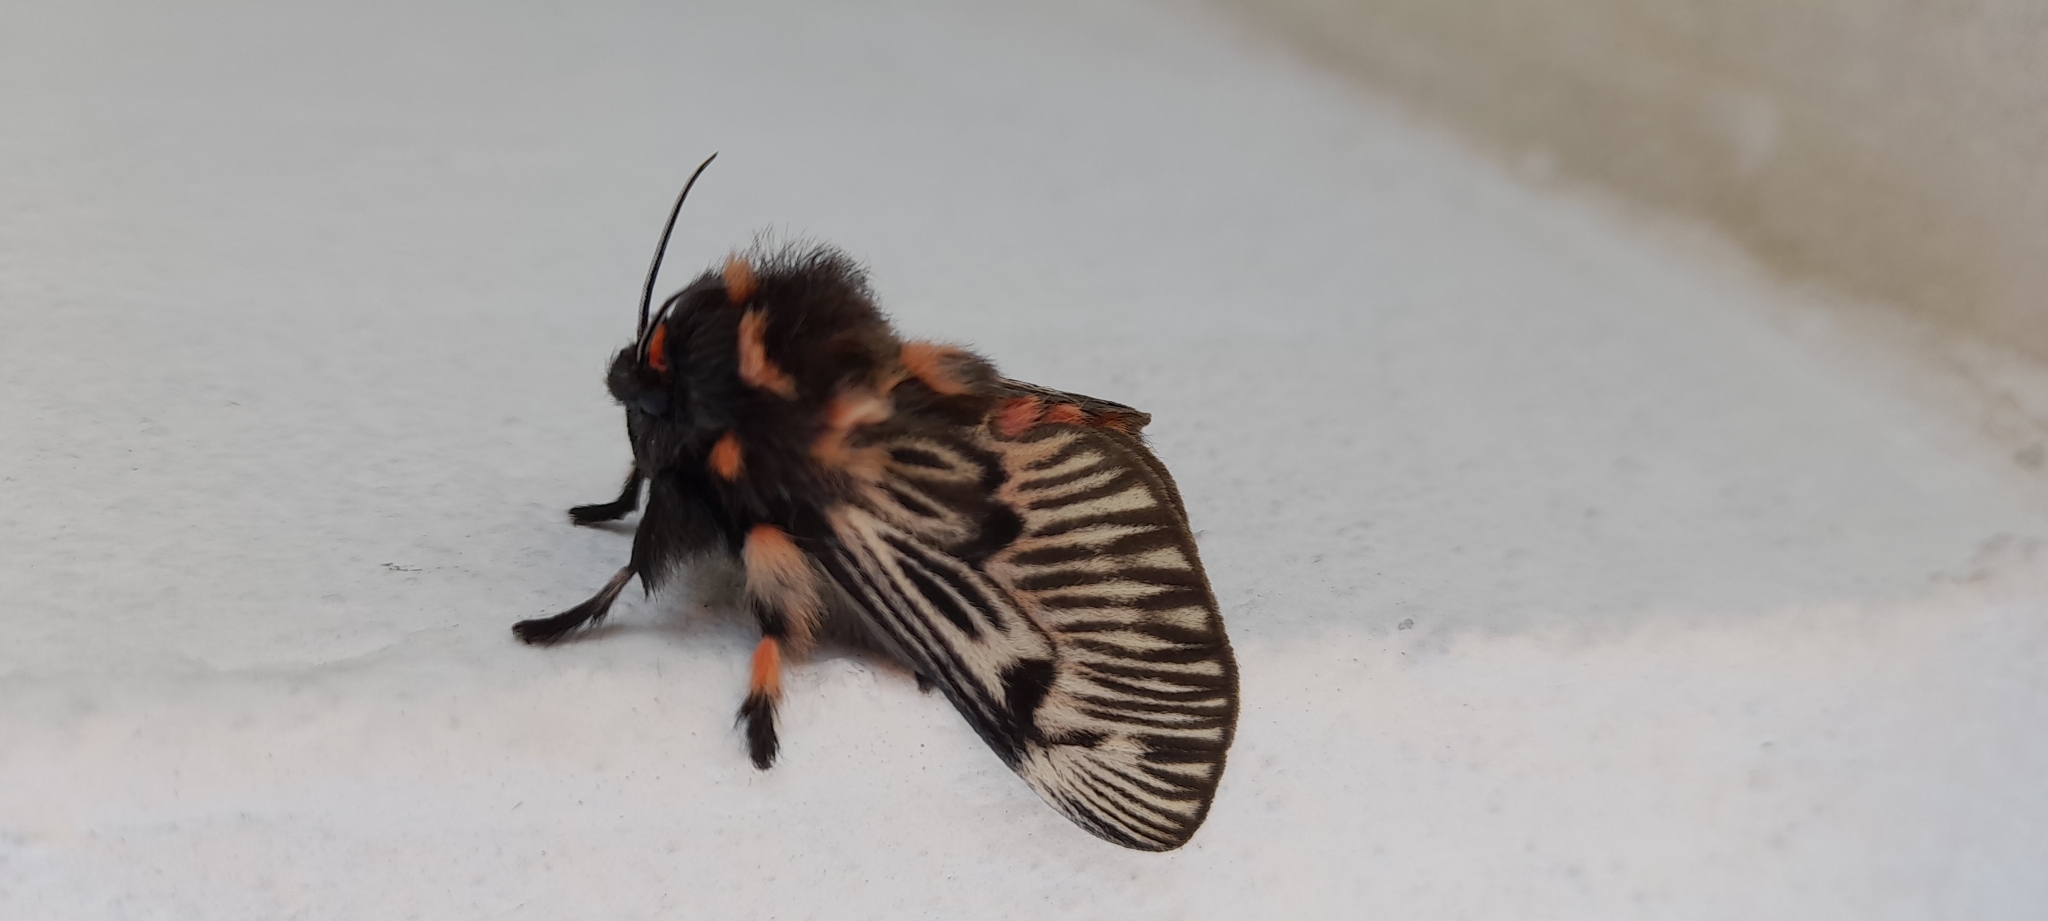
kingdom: Animalia
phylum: Arthropoda
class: Insecta
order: Lepidoptera
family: Megalopygidae
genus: Megalopyge
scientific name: Megalopyge urens
